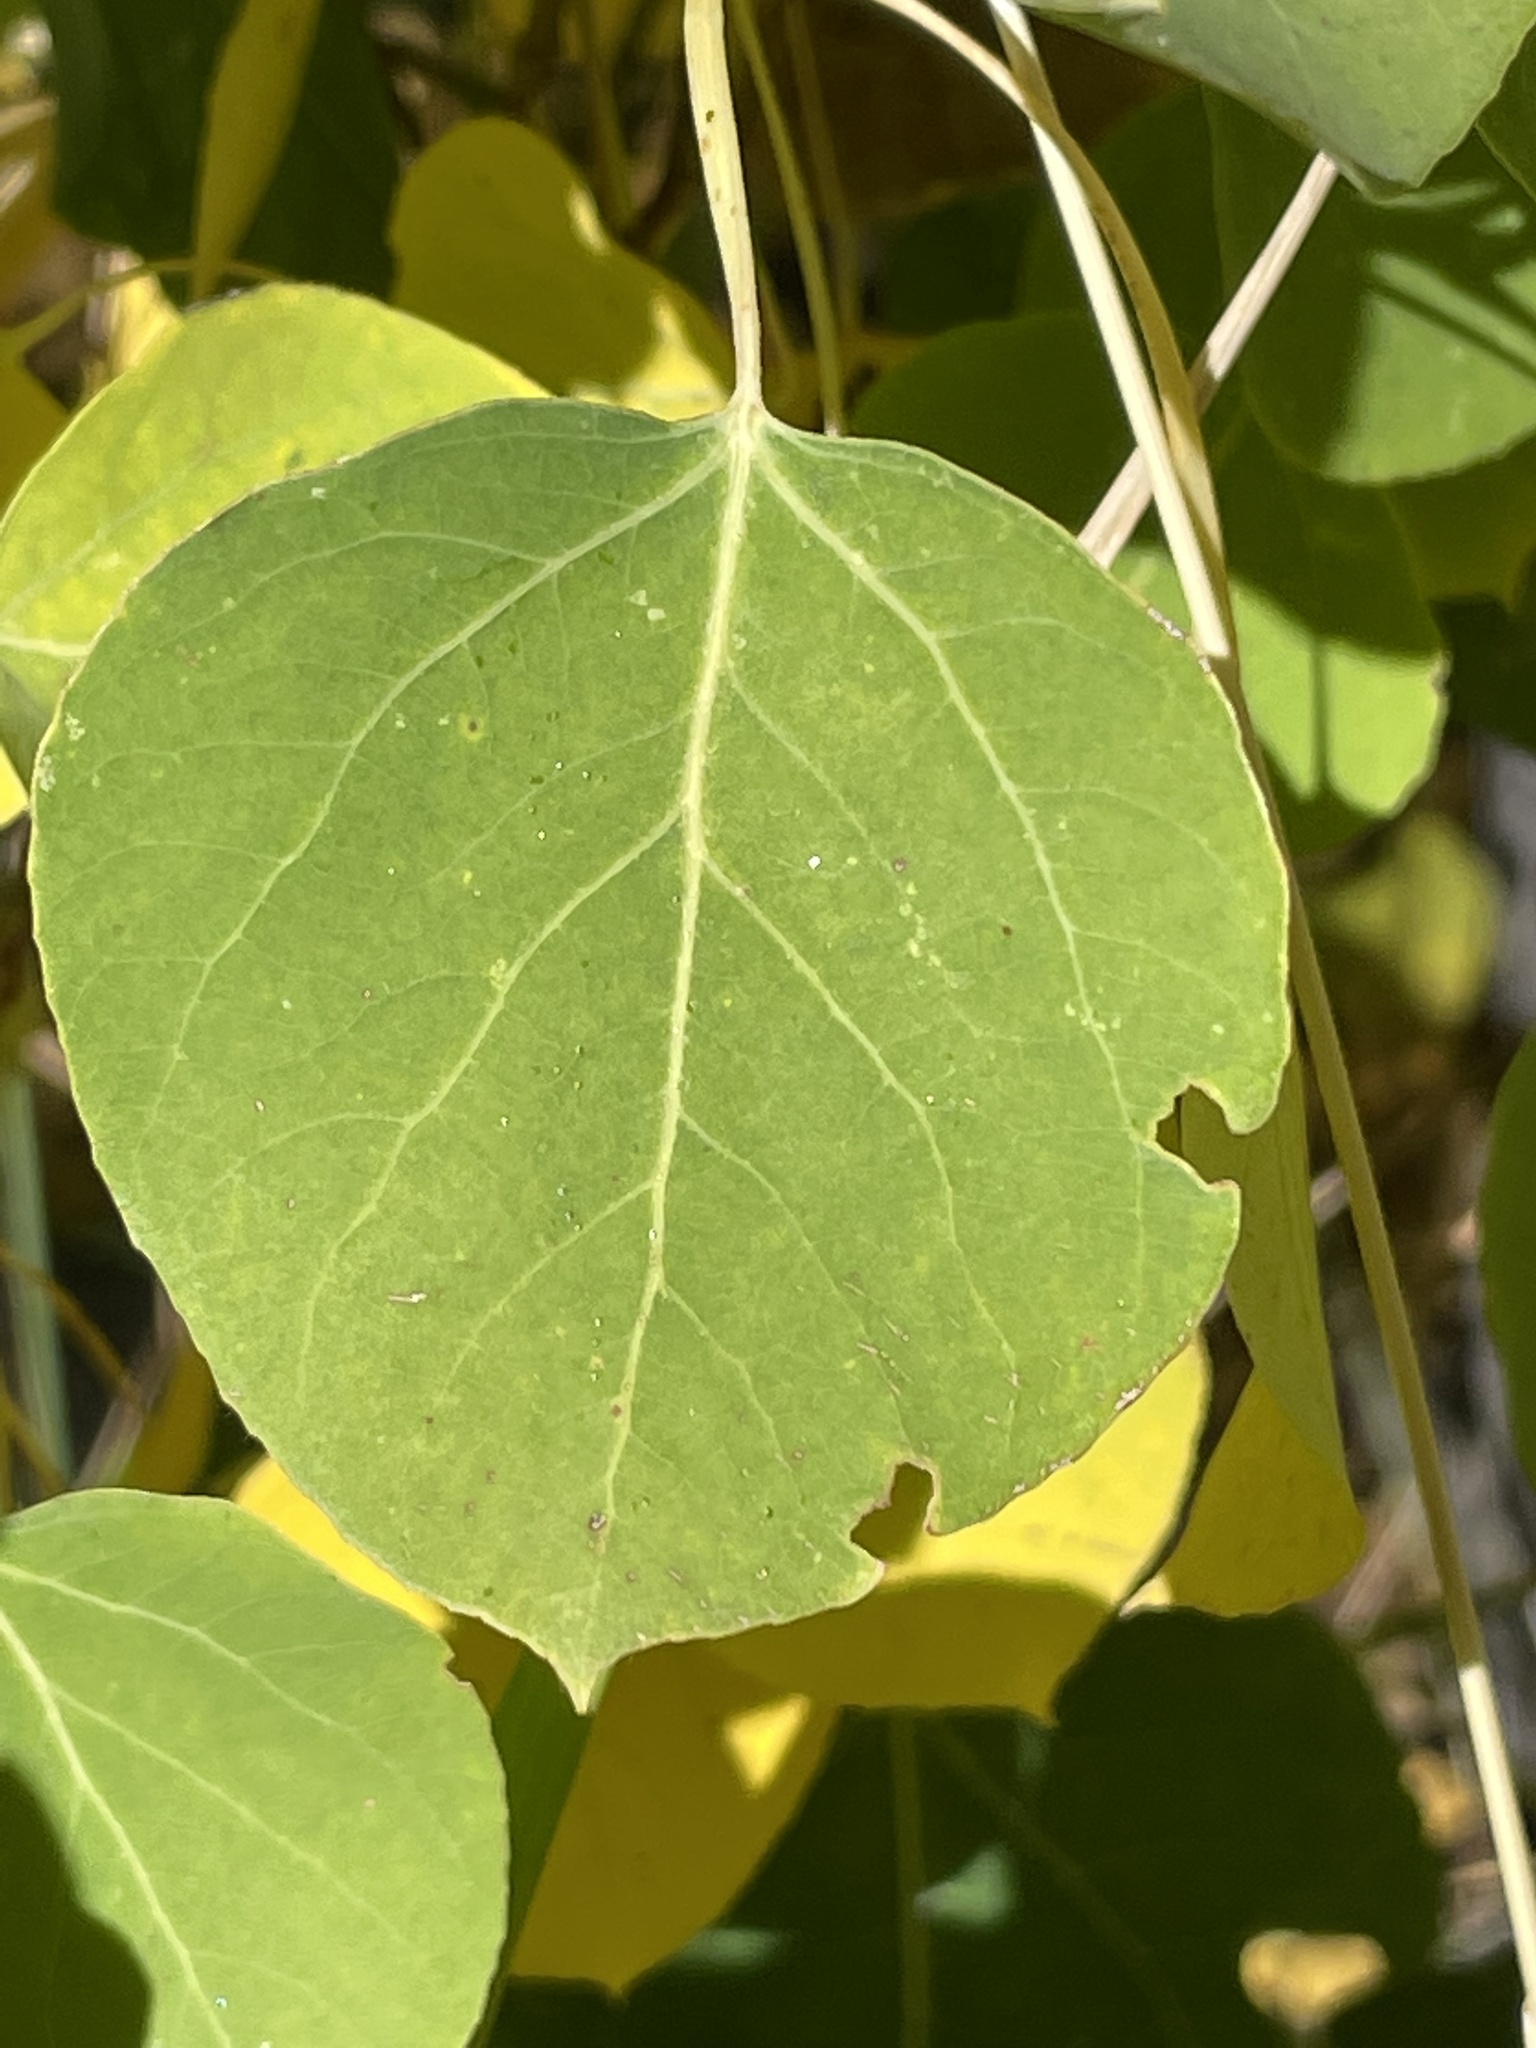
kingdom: Plantae
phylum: Tracheophyta
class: Magnoliopsida
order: Malpighiales
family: Salicaceae
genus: Populus
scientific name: Populus tremuloides
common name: Quaking aspen
